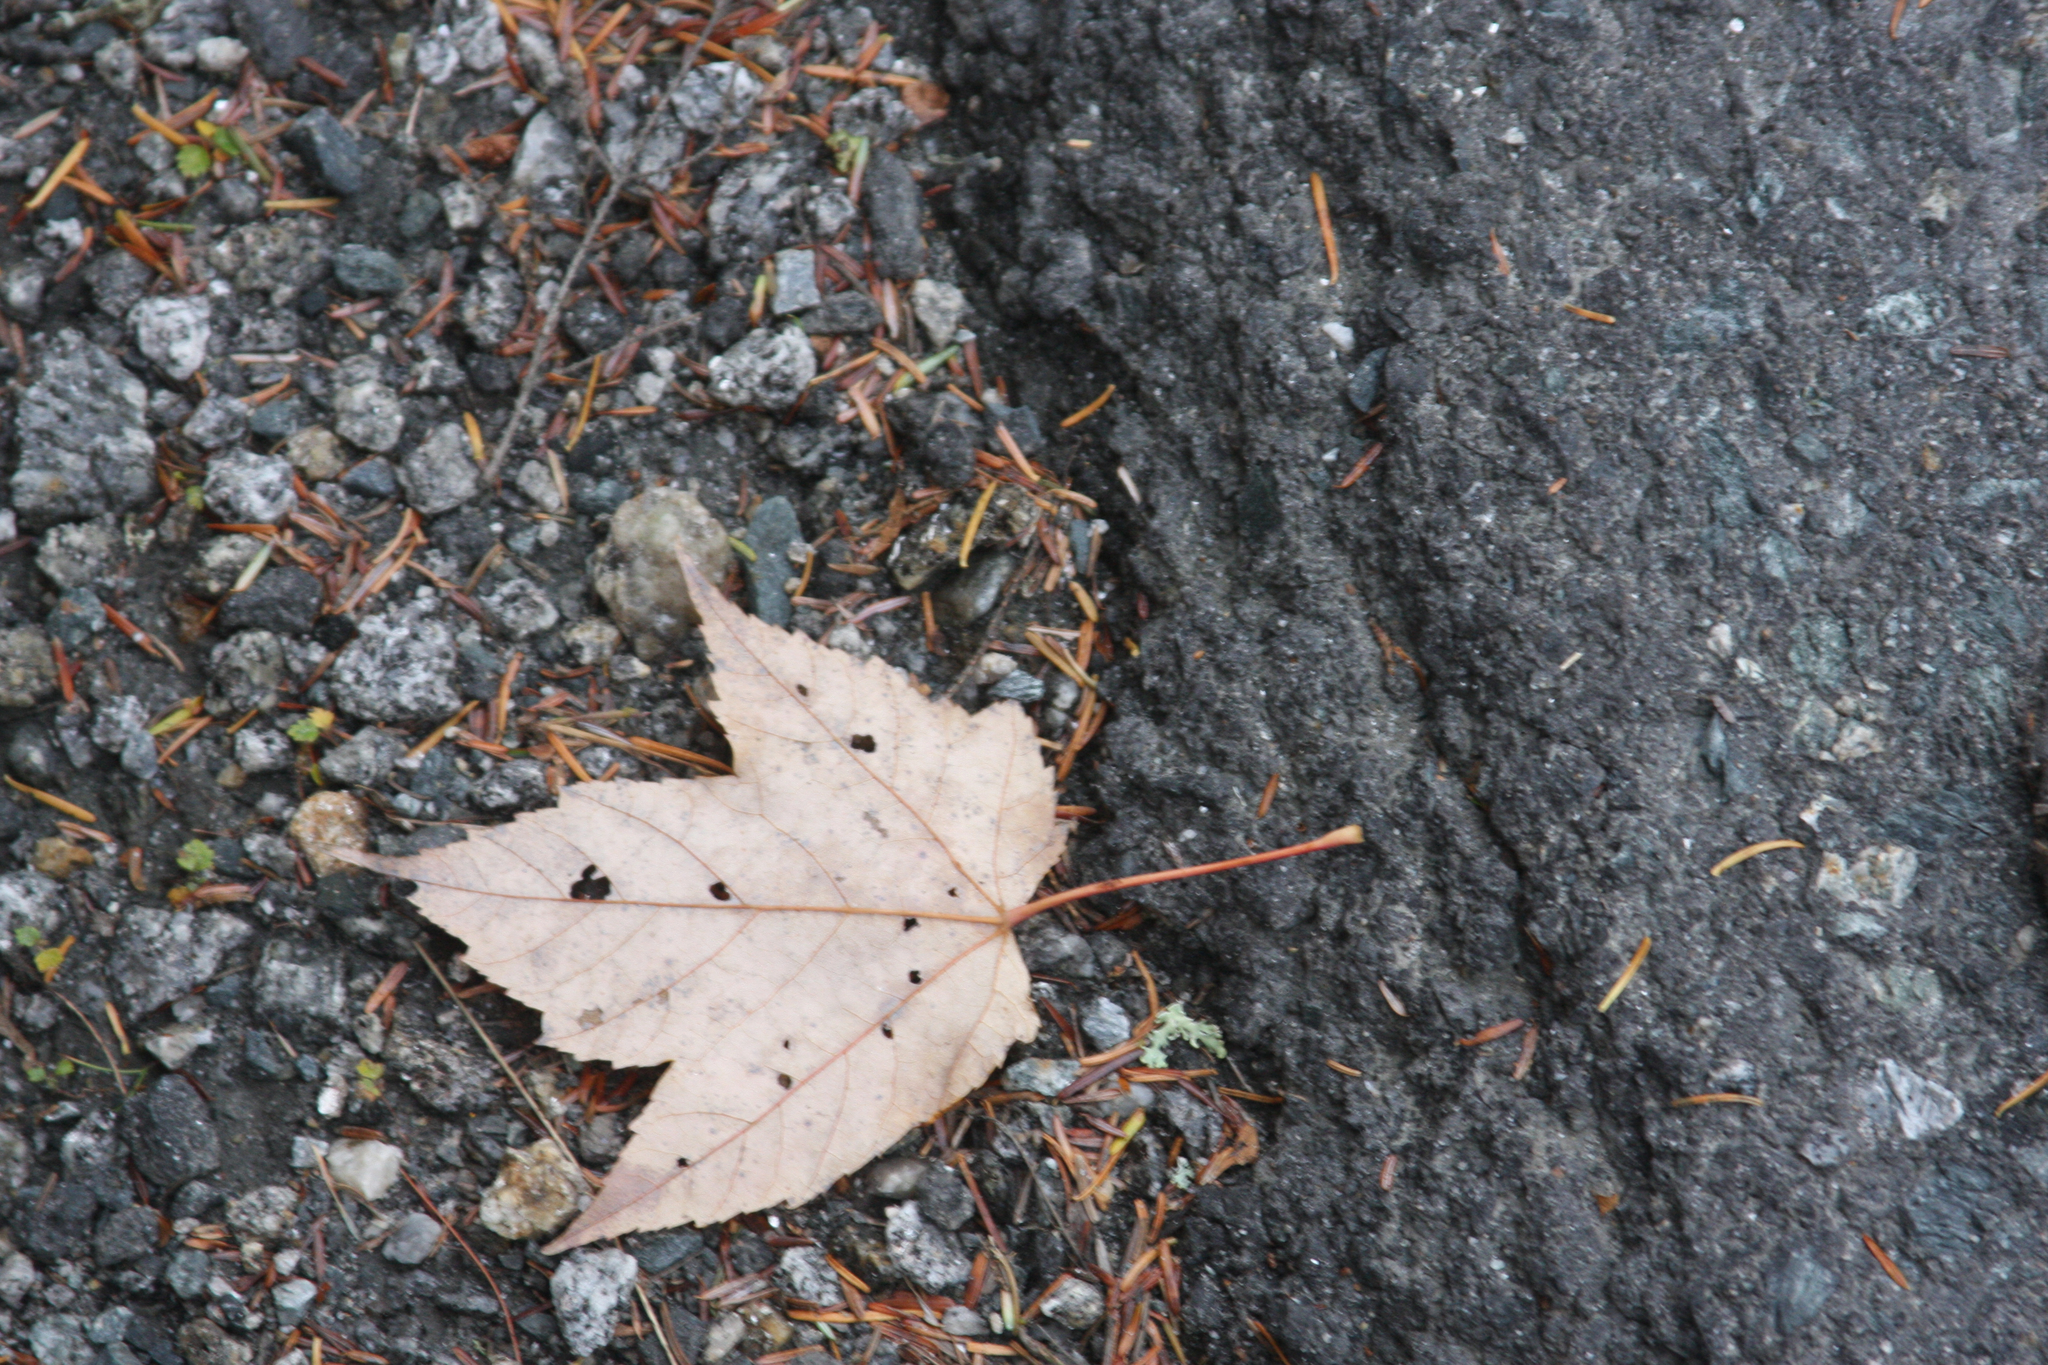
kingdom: Plantae
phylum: Tracheophyta
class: Magnoliopsida
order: Sapindales
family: Sapindaceae
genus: Acer
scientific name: Acer rubrum
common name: Red maple
